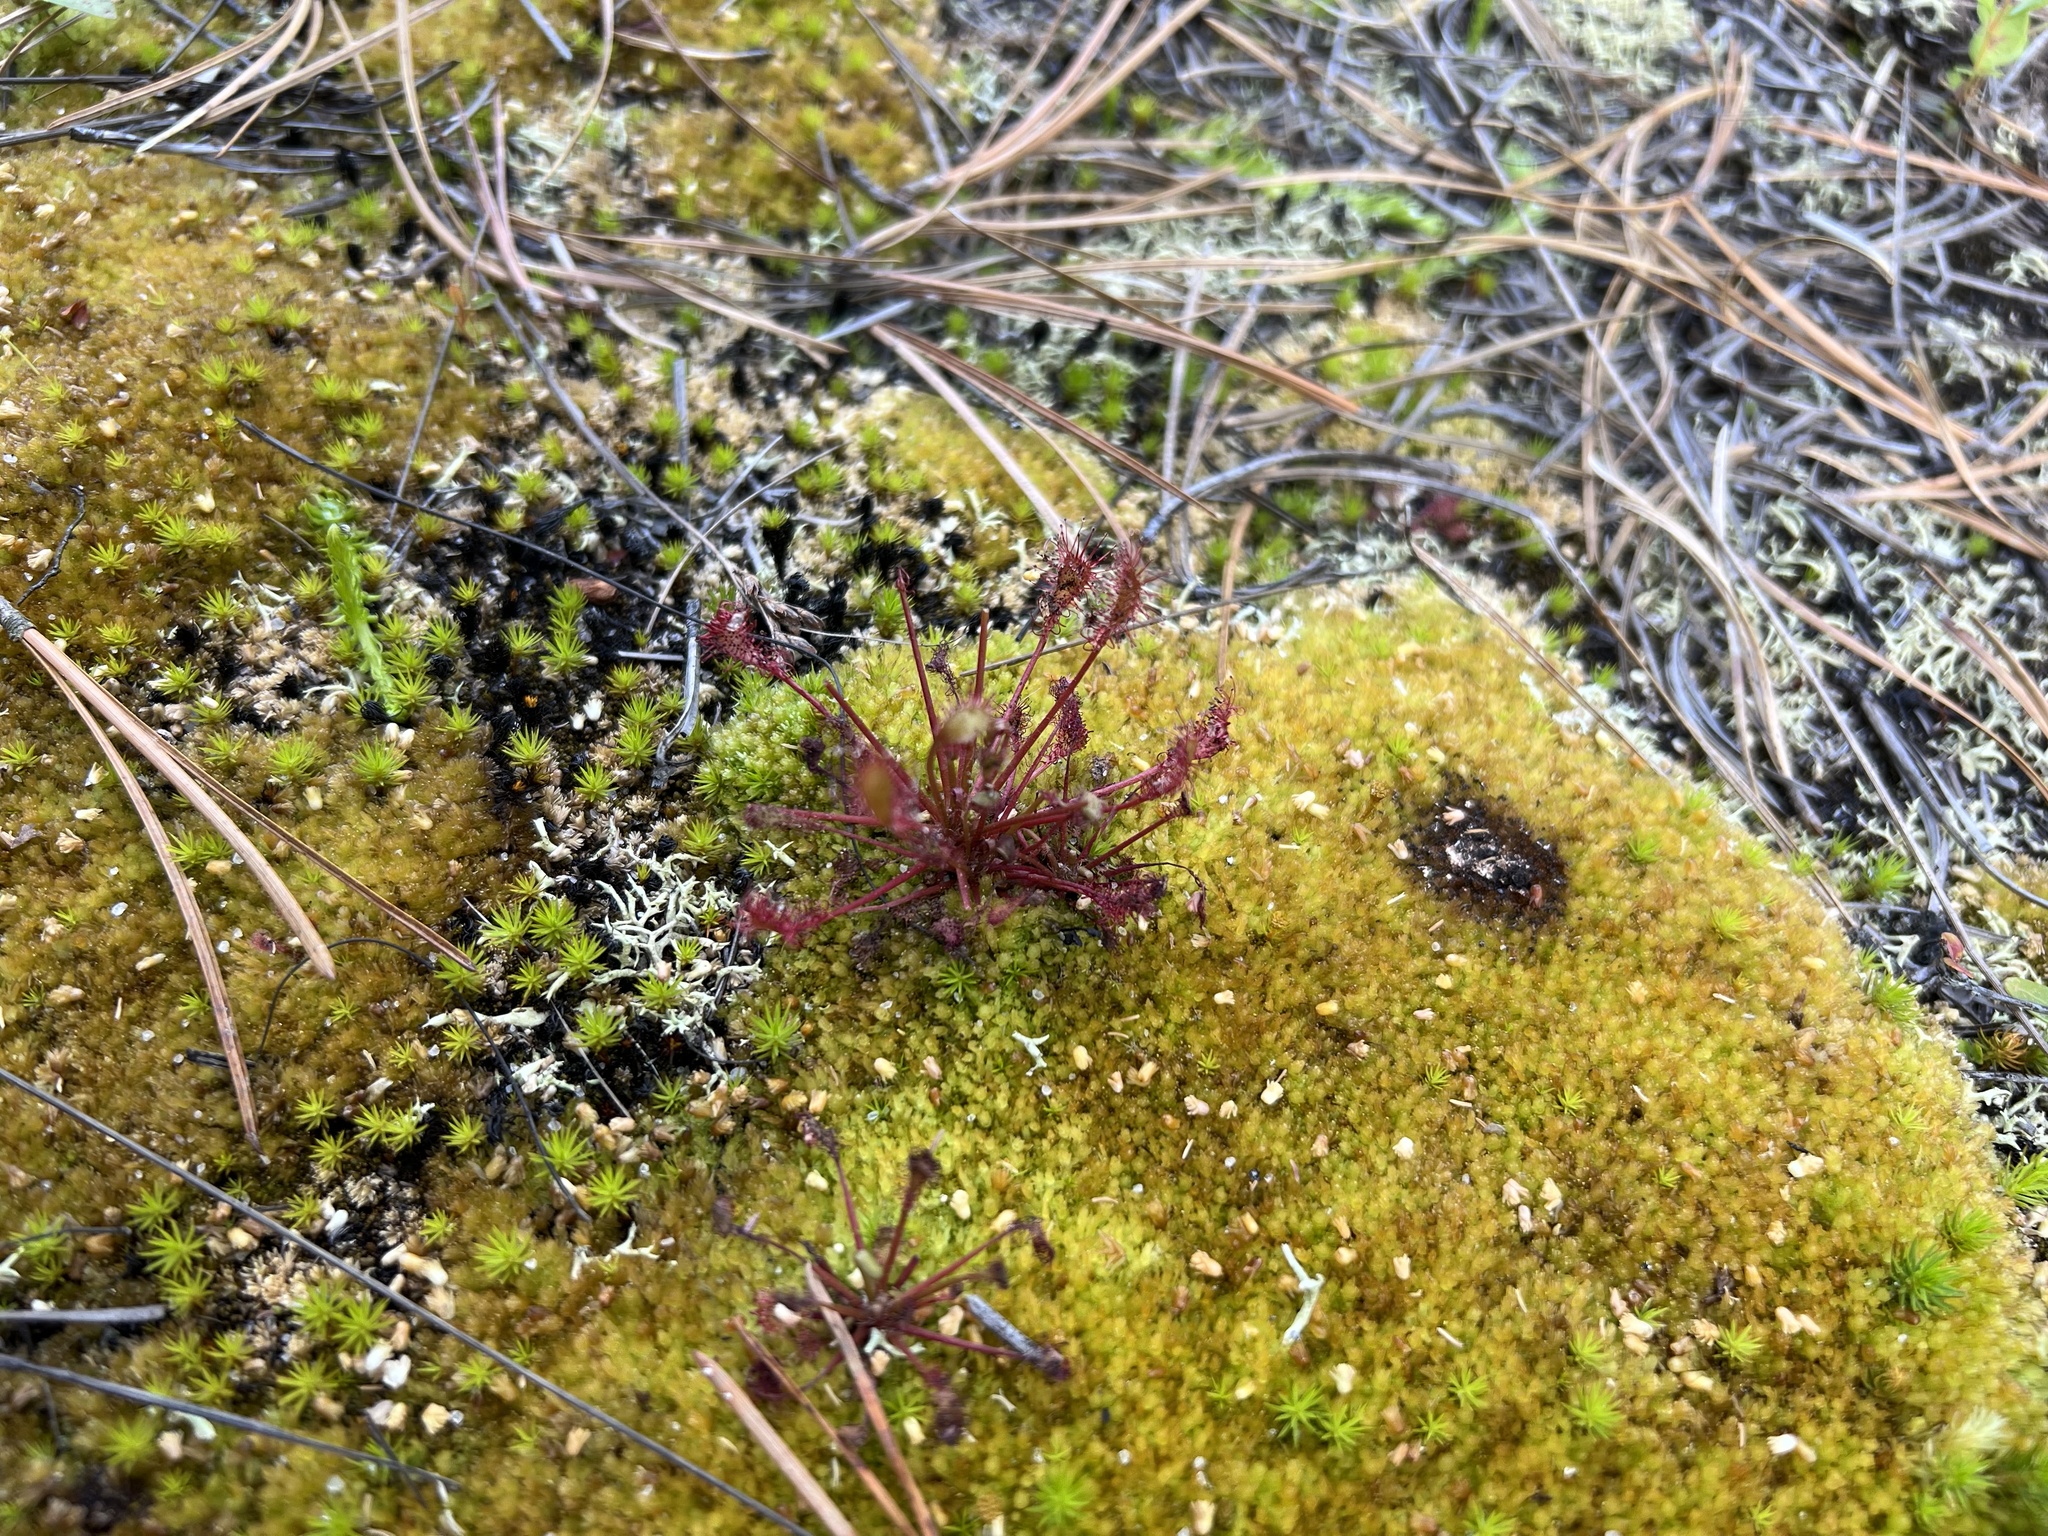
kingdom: Plantae
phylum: Tracheophyta
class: Magnoliopsida
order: Caryophyllales
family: Droseraceae
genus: Drosera
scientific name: Drosera intermedia
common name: Oblong-leaved sundew
